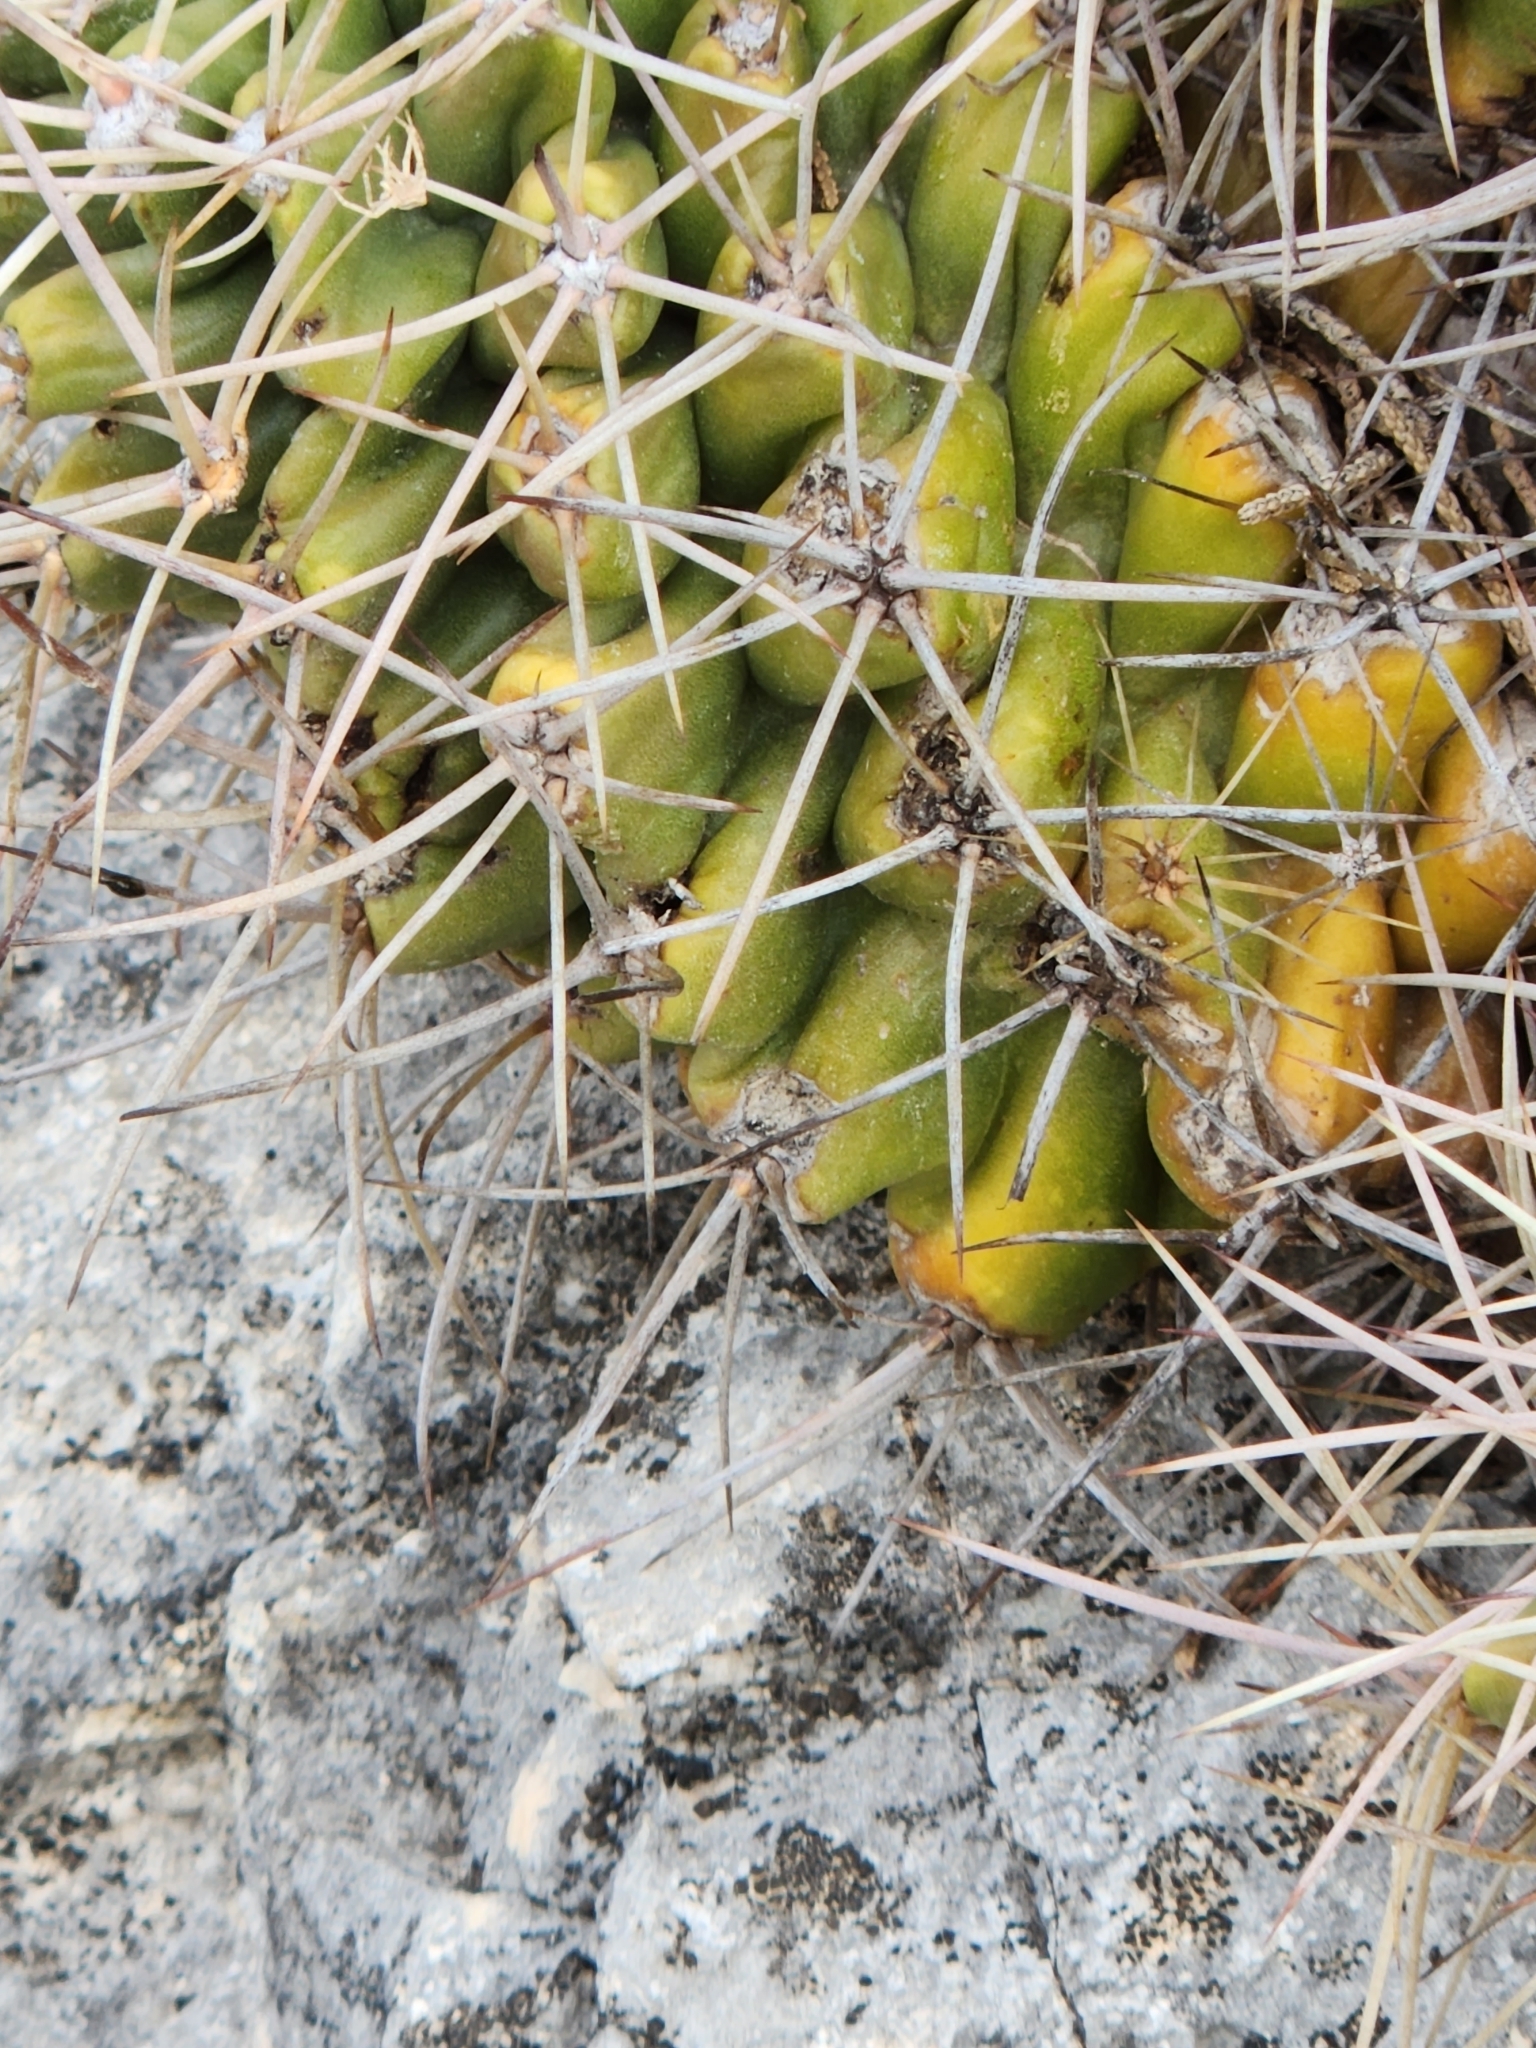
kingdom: Plantae
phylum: Tracheophyta
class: Magnoliopsida
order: Caryophyllales
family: Cactaceae
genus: Echinocereus
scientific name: Echinocereus coccineus
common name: Scarlet hedgehog cactus
